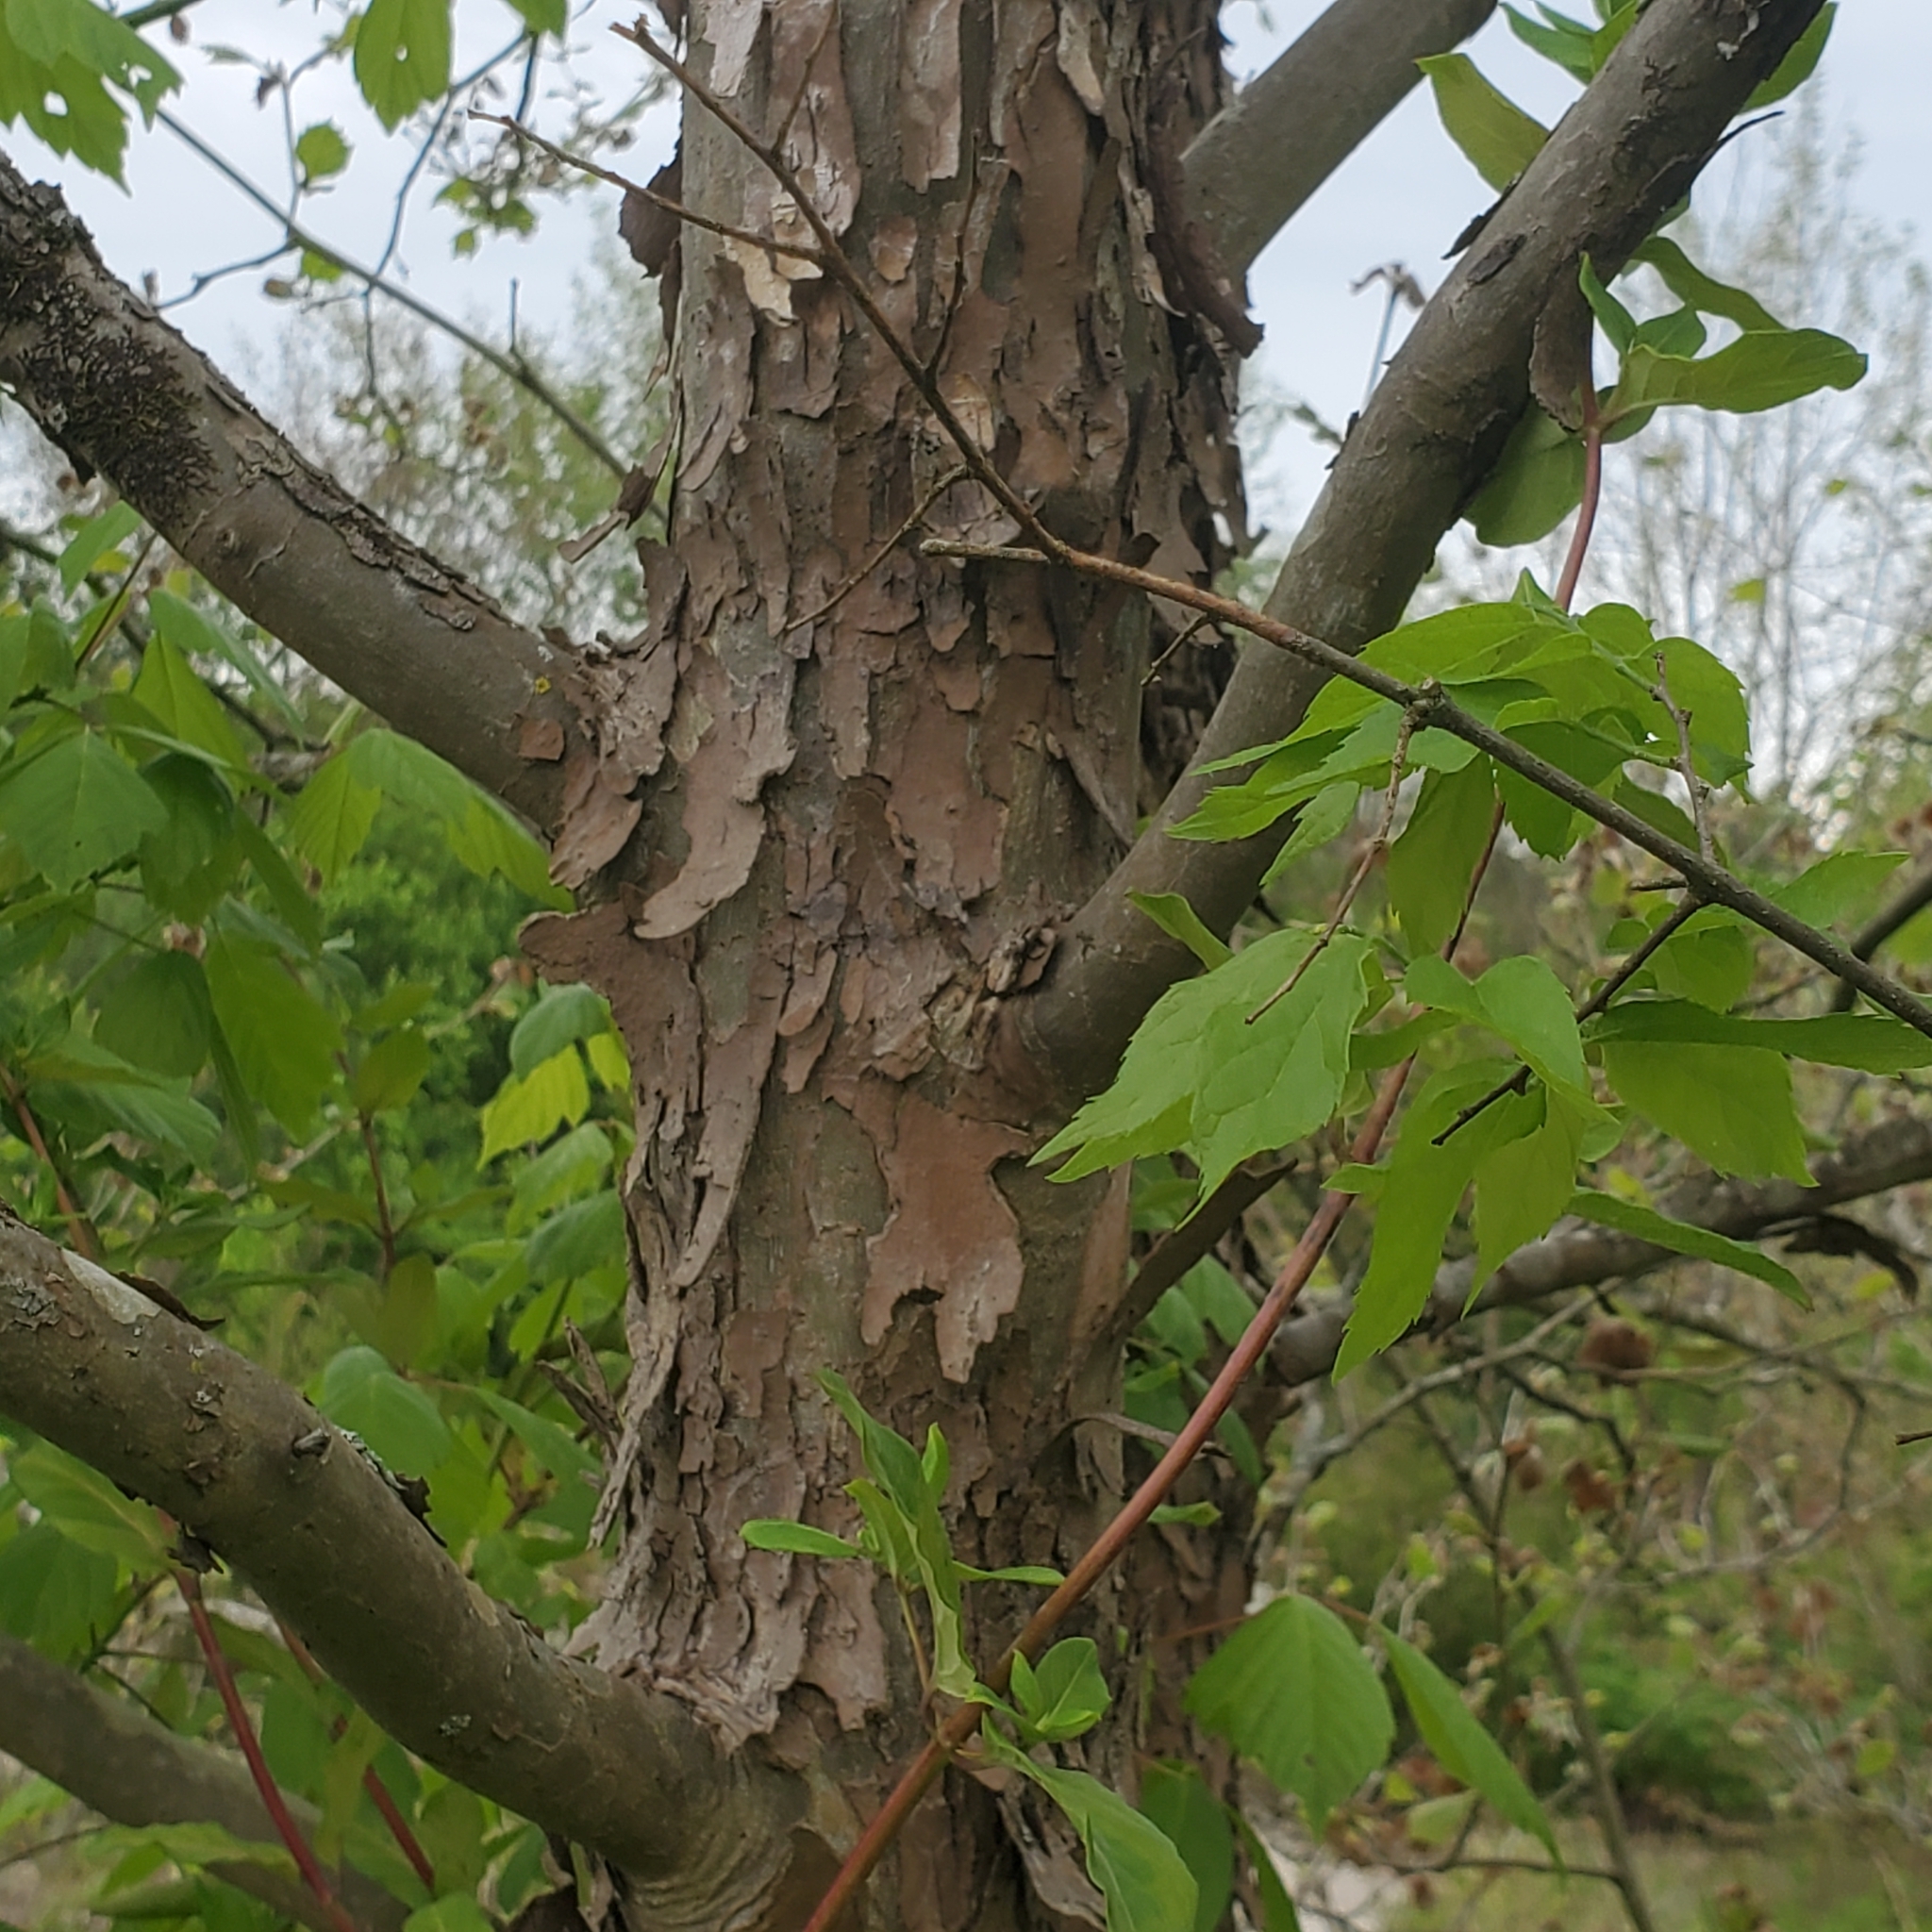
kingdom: Plantae
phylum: Tracheophyta
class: Magnoliopsida
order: Proteales
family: Platanaceae
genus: Platanus
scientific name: Platanus occidentalis
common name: American sycamore
